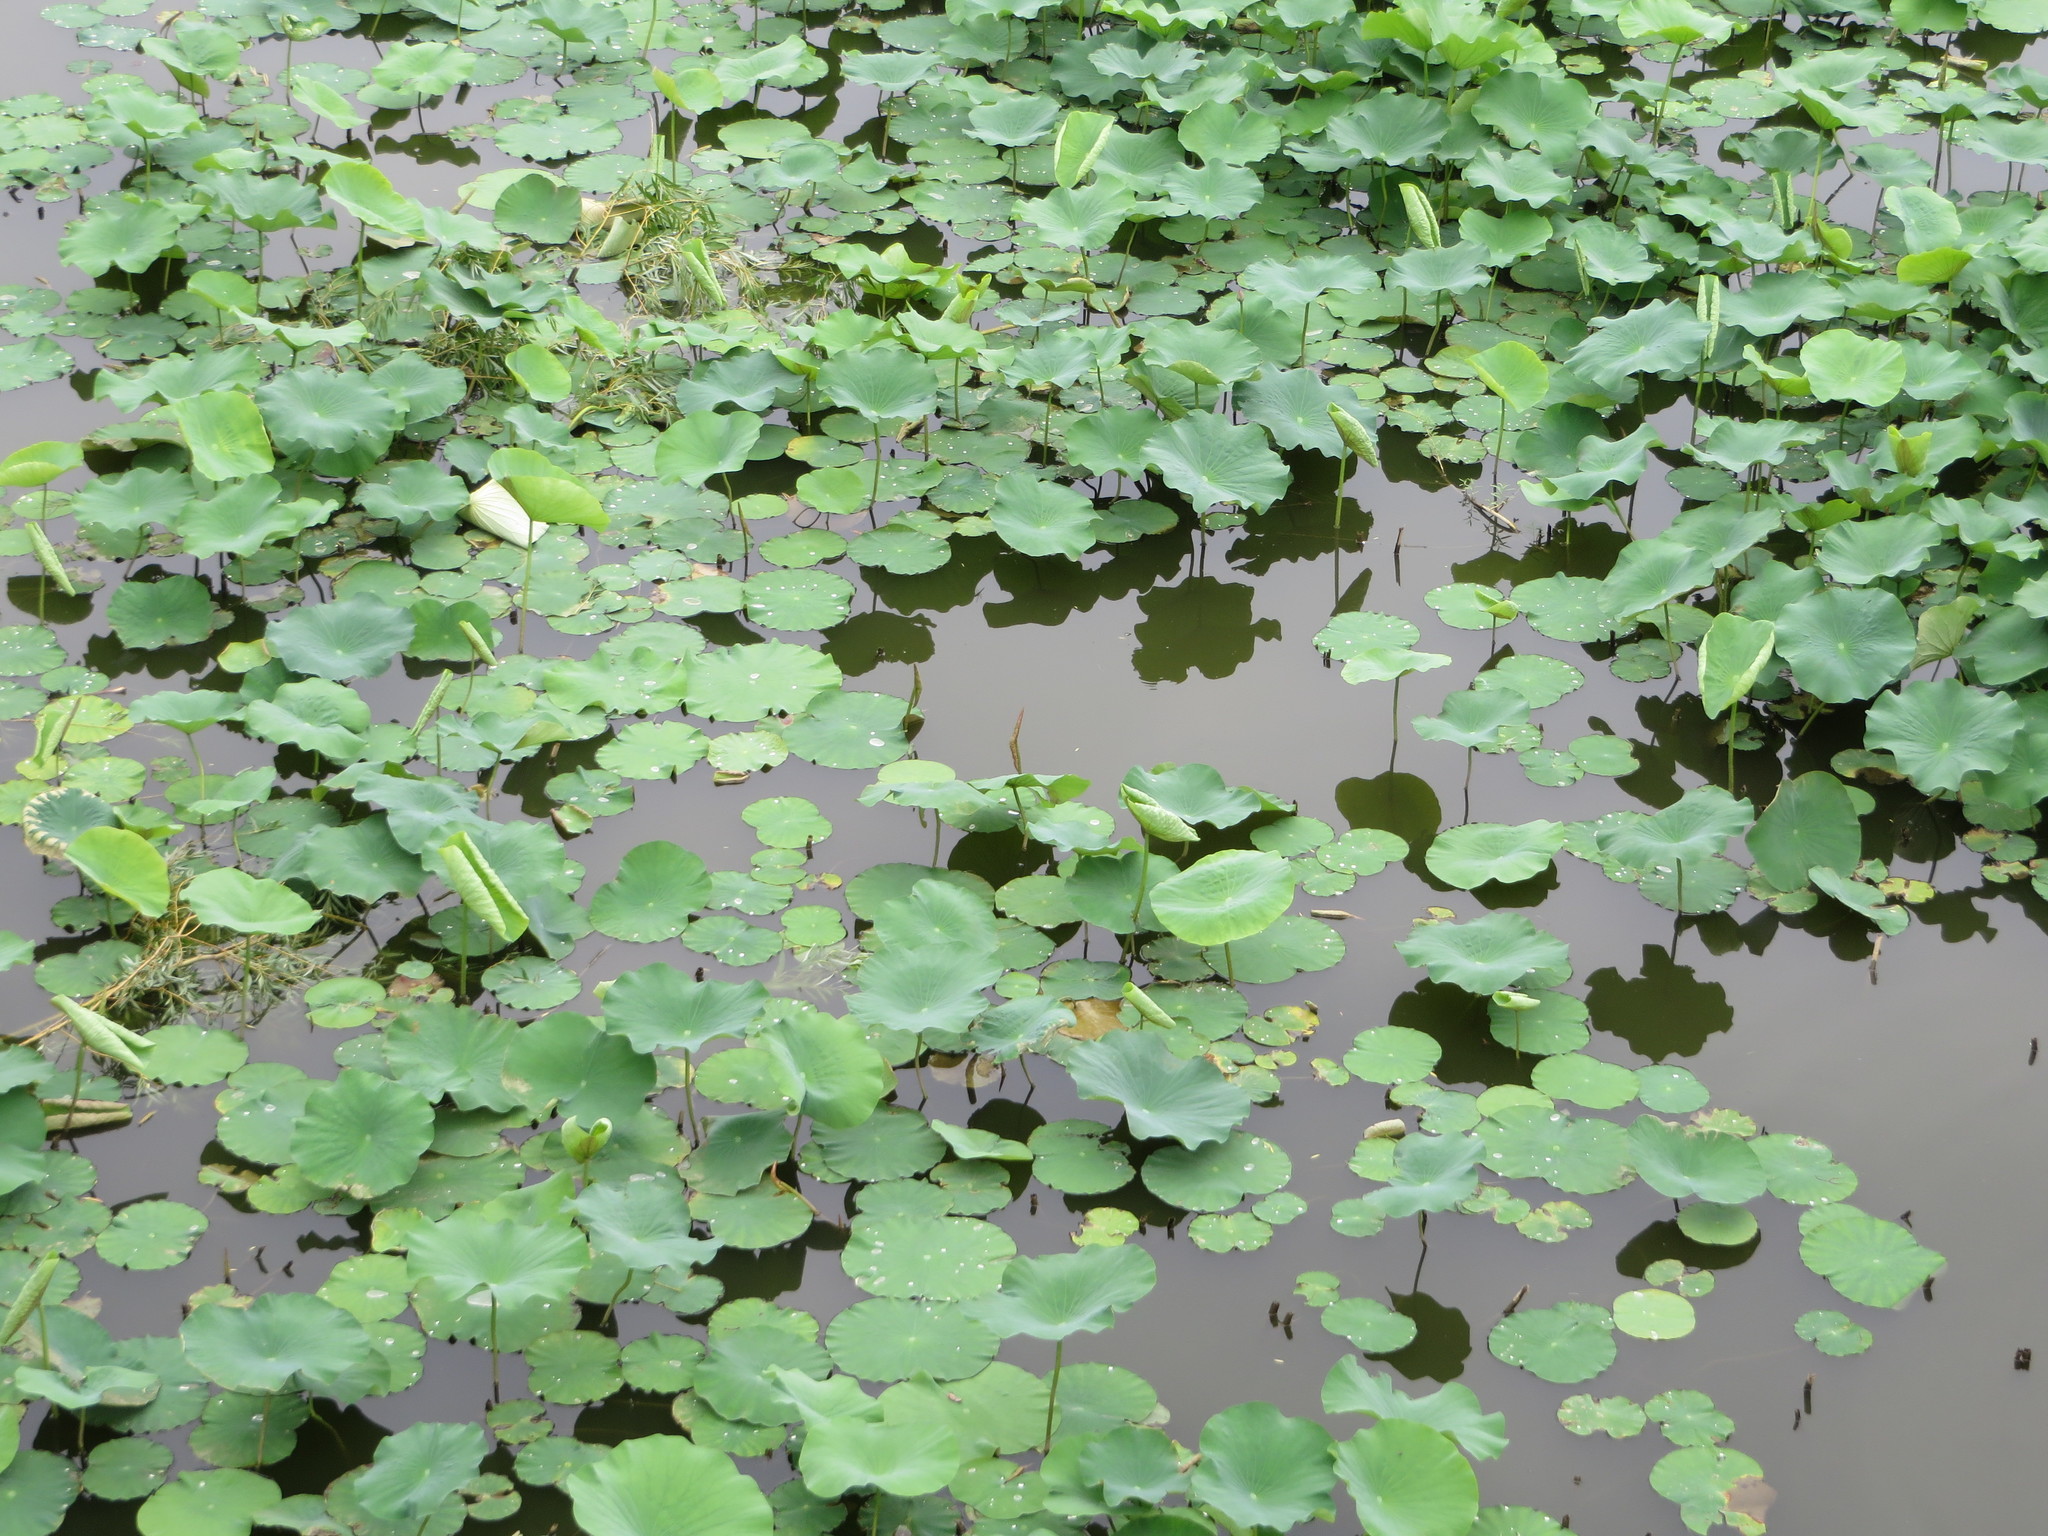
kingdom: Plantae
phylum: Tracheophyta
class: Magnoliopsida
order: Proteales
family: Nelumbonaceae
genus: Nelumbo
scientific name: Nelumbo nucifera
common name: Sacred lotus
